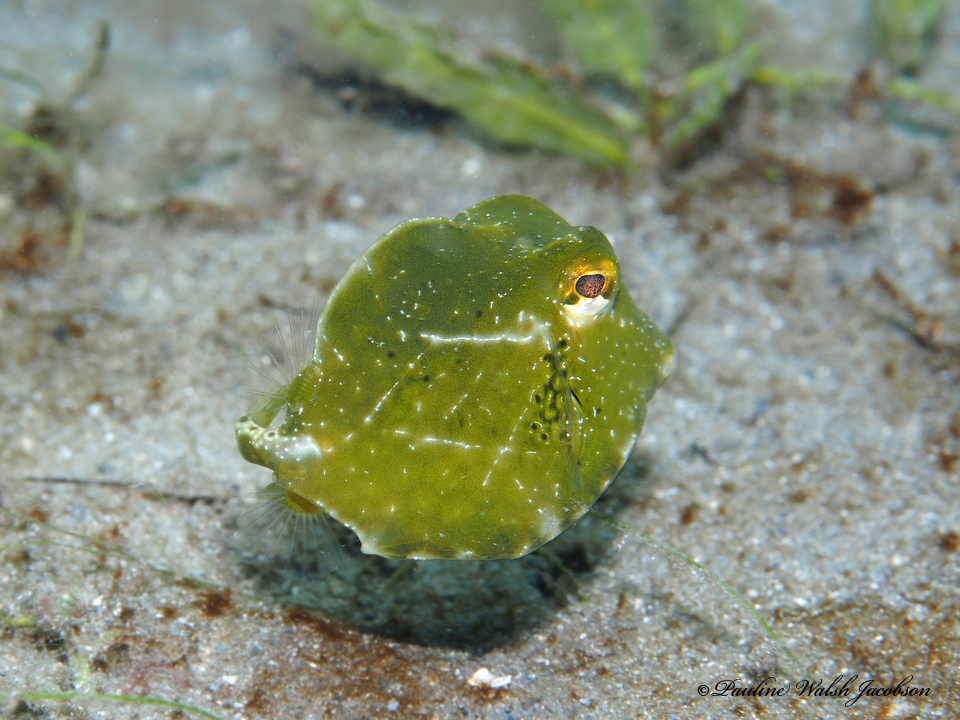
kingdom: Animalia
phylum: Chordata
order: Tetraodontiformes
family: Ostraciidae
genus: Lactophrys
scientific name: Lactophrys trigonus
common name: Buffalo trunkfish
